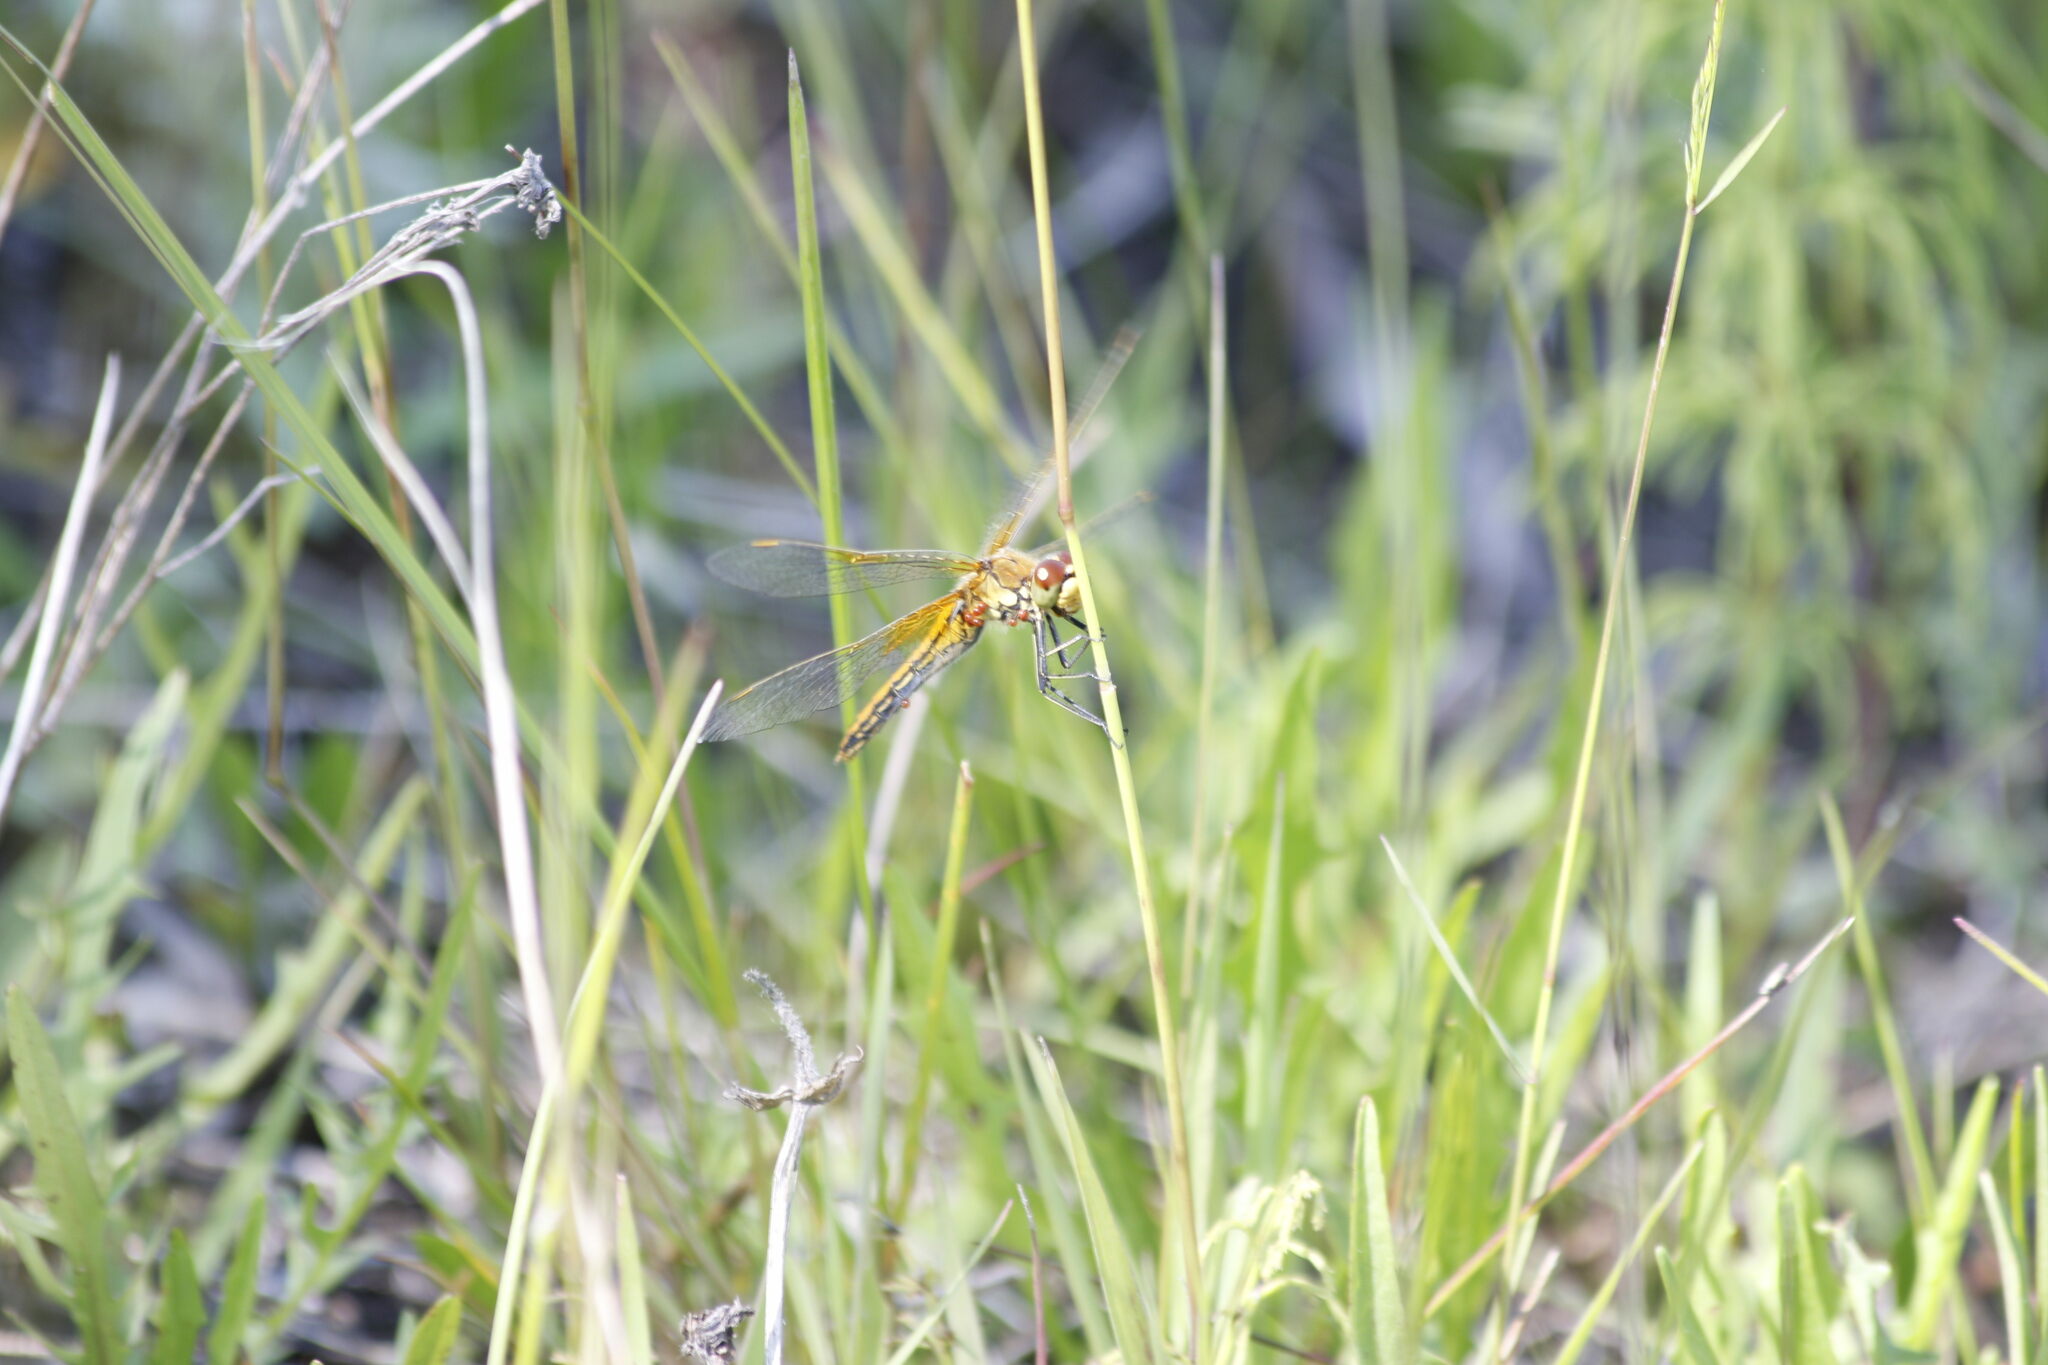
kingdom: Animalia
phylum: Arthropoda
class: Insecta
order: Odonata
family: Libellulidae
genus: Sympetrum
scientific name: Sympetrum flaveolum
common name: Yellow-winged darter
